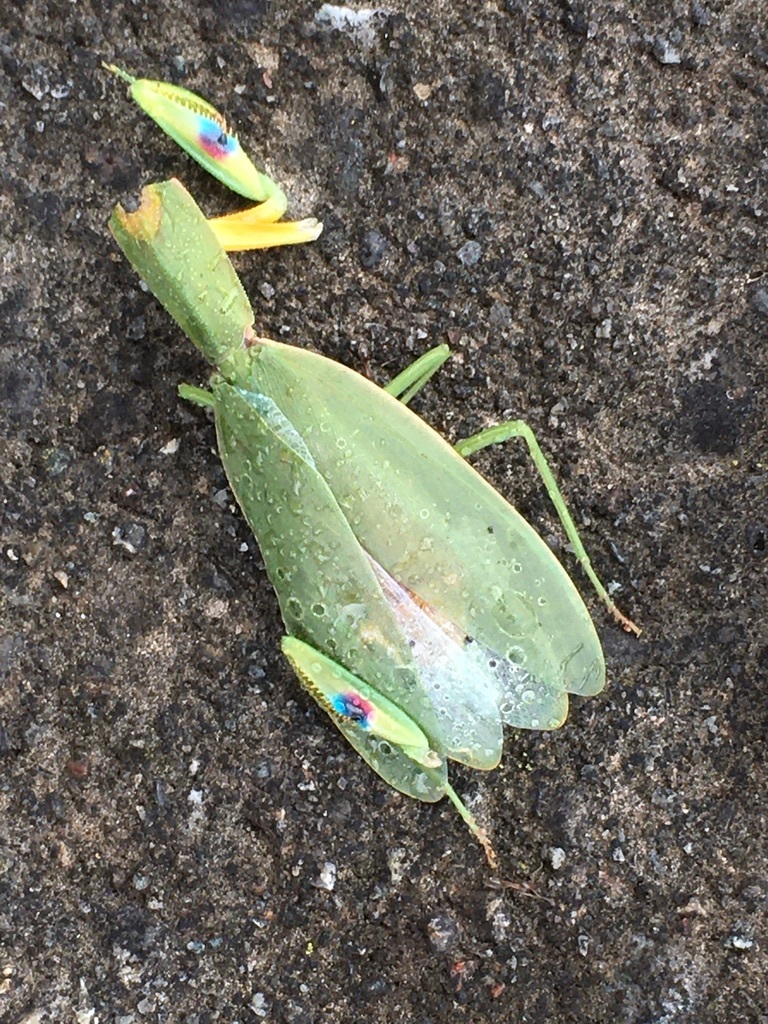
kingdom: Animalia
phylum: Arthropoda
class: Insecta
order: Mantodea
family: Mantidae
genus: Orthodera
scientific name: Orthodera novaezealandiae
